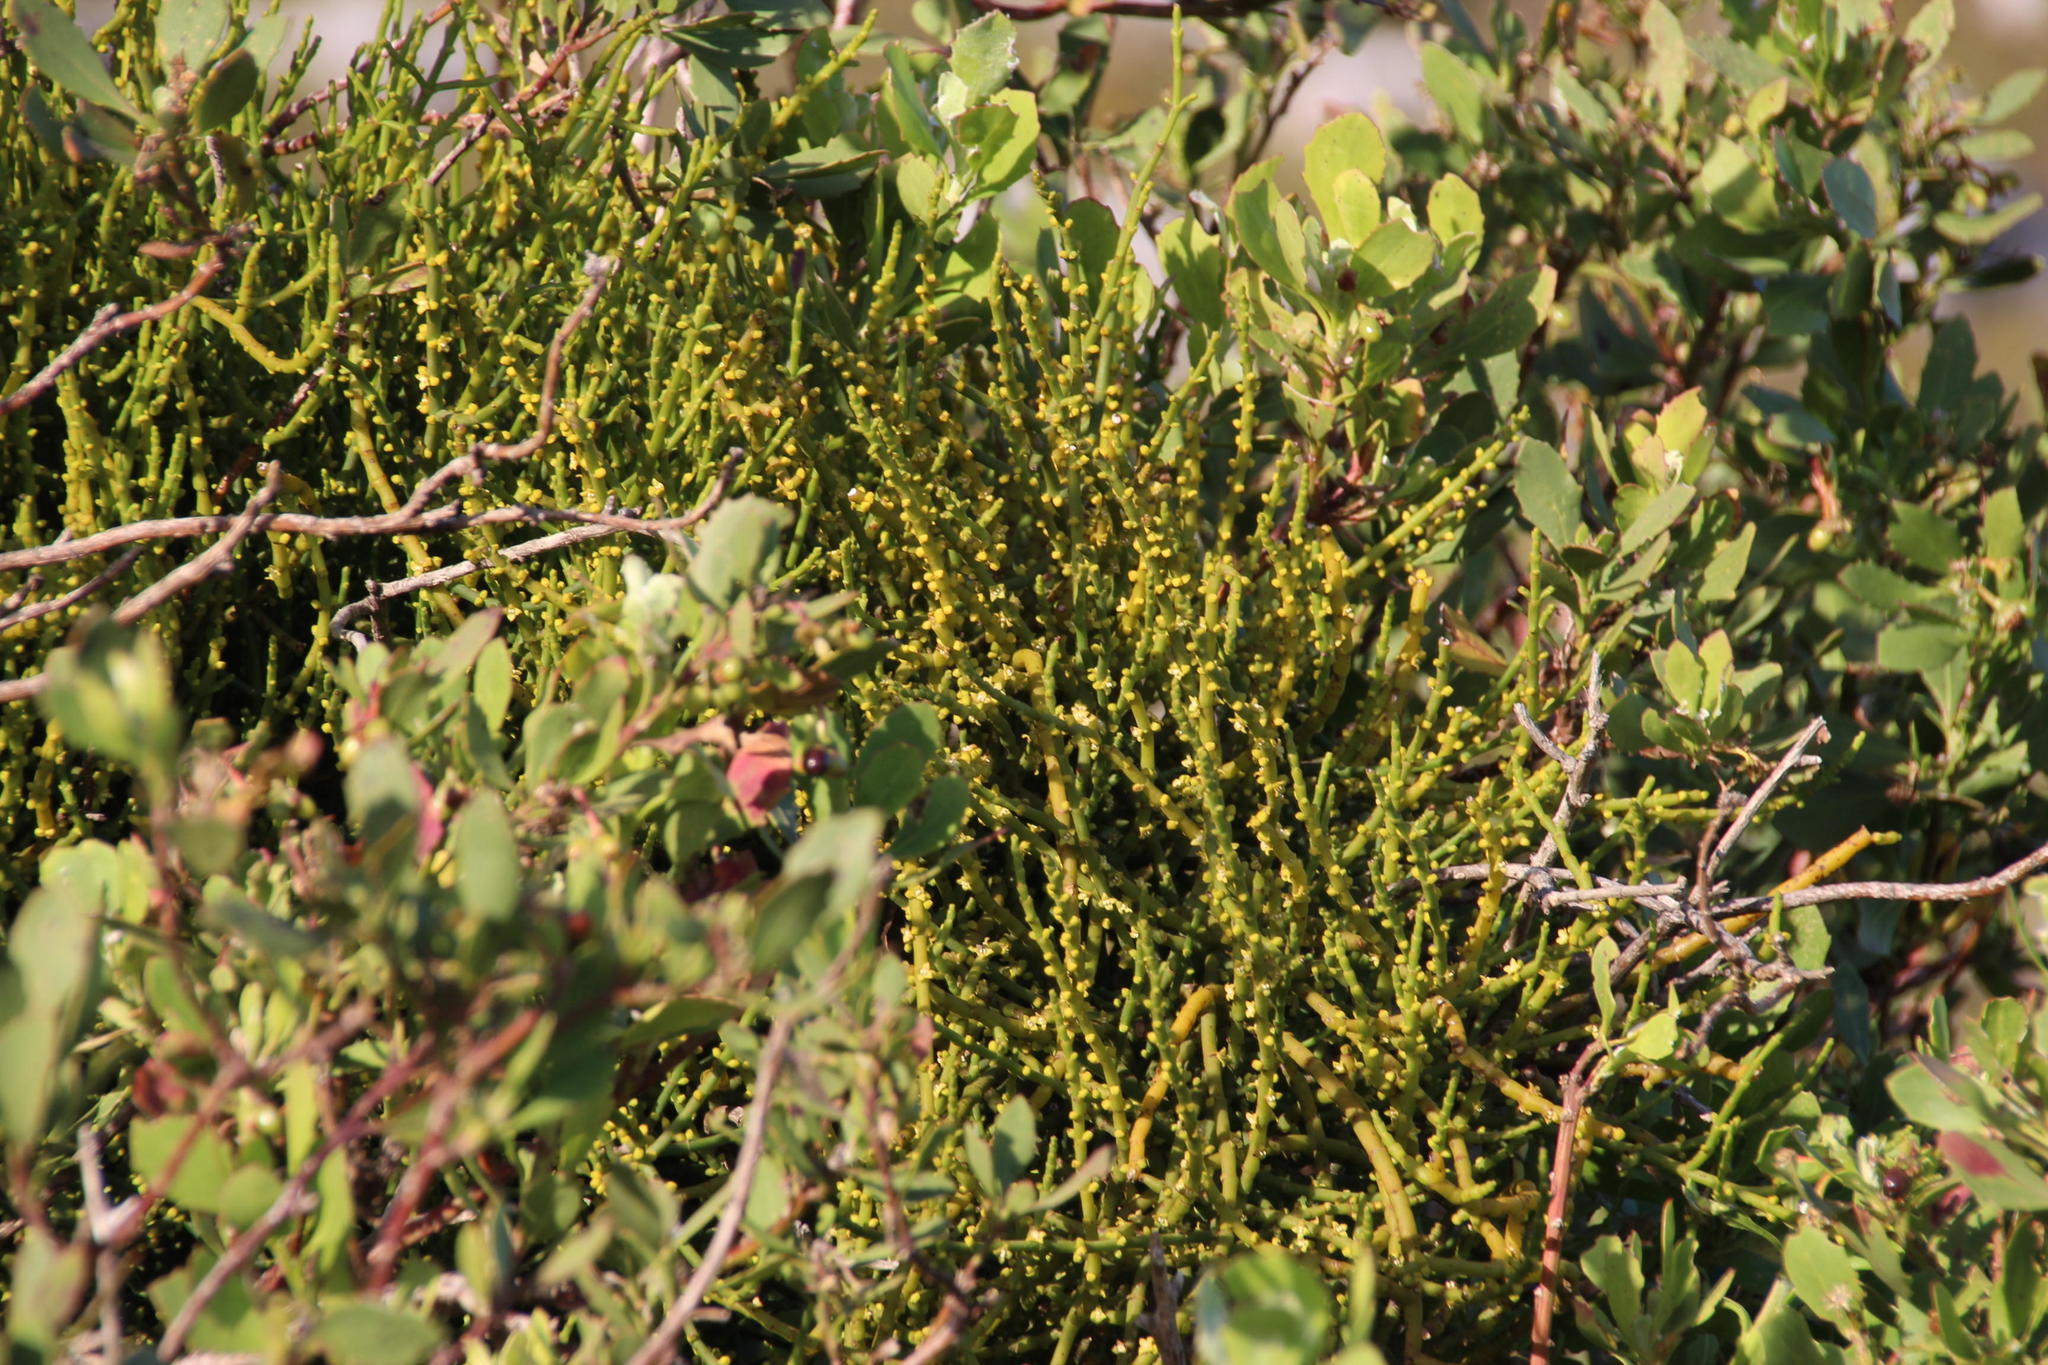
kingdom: Plantae
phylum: Tracheophyta
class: Magnoliopsida
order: Santalales
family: Viscaceae
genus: Viscum
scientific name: Viscum capense
